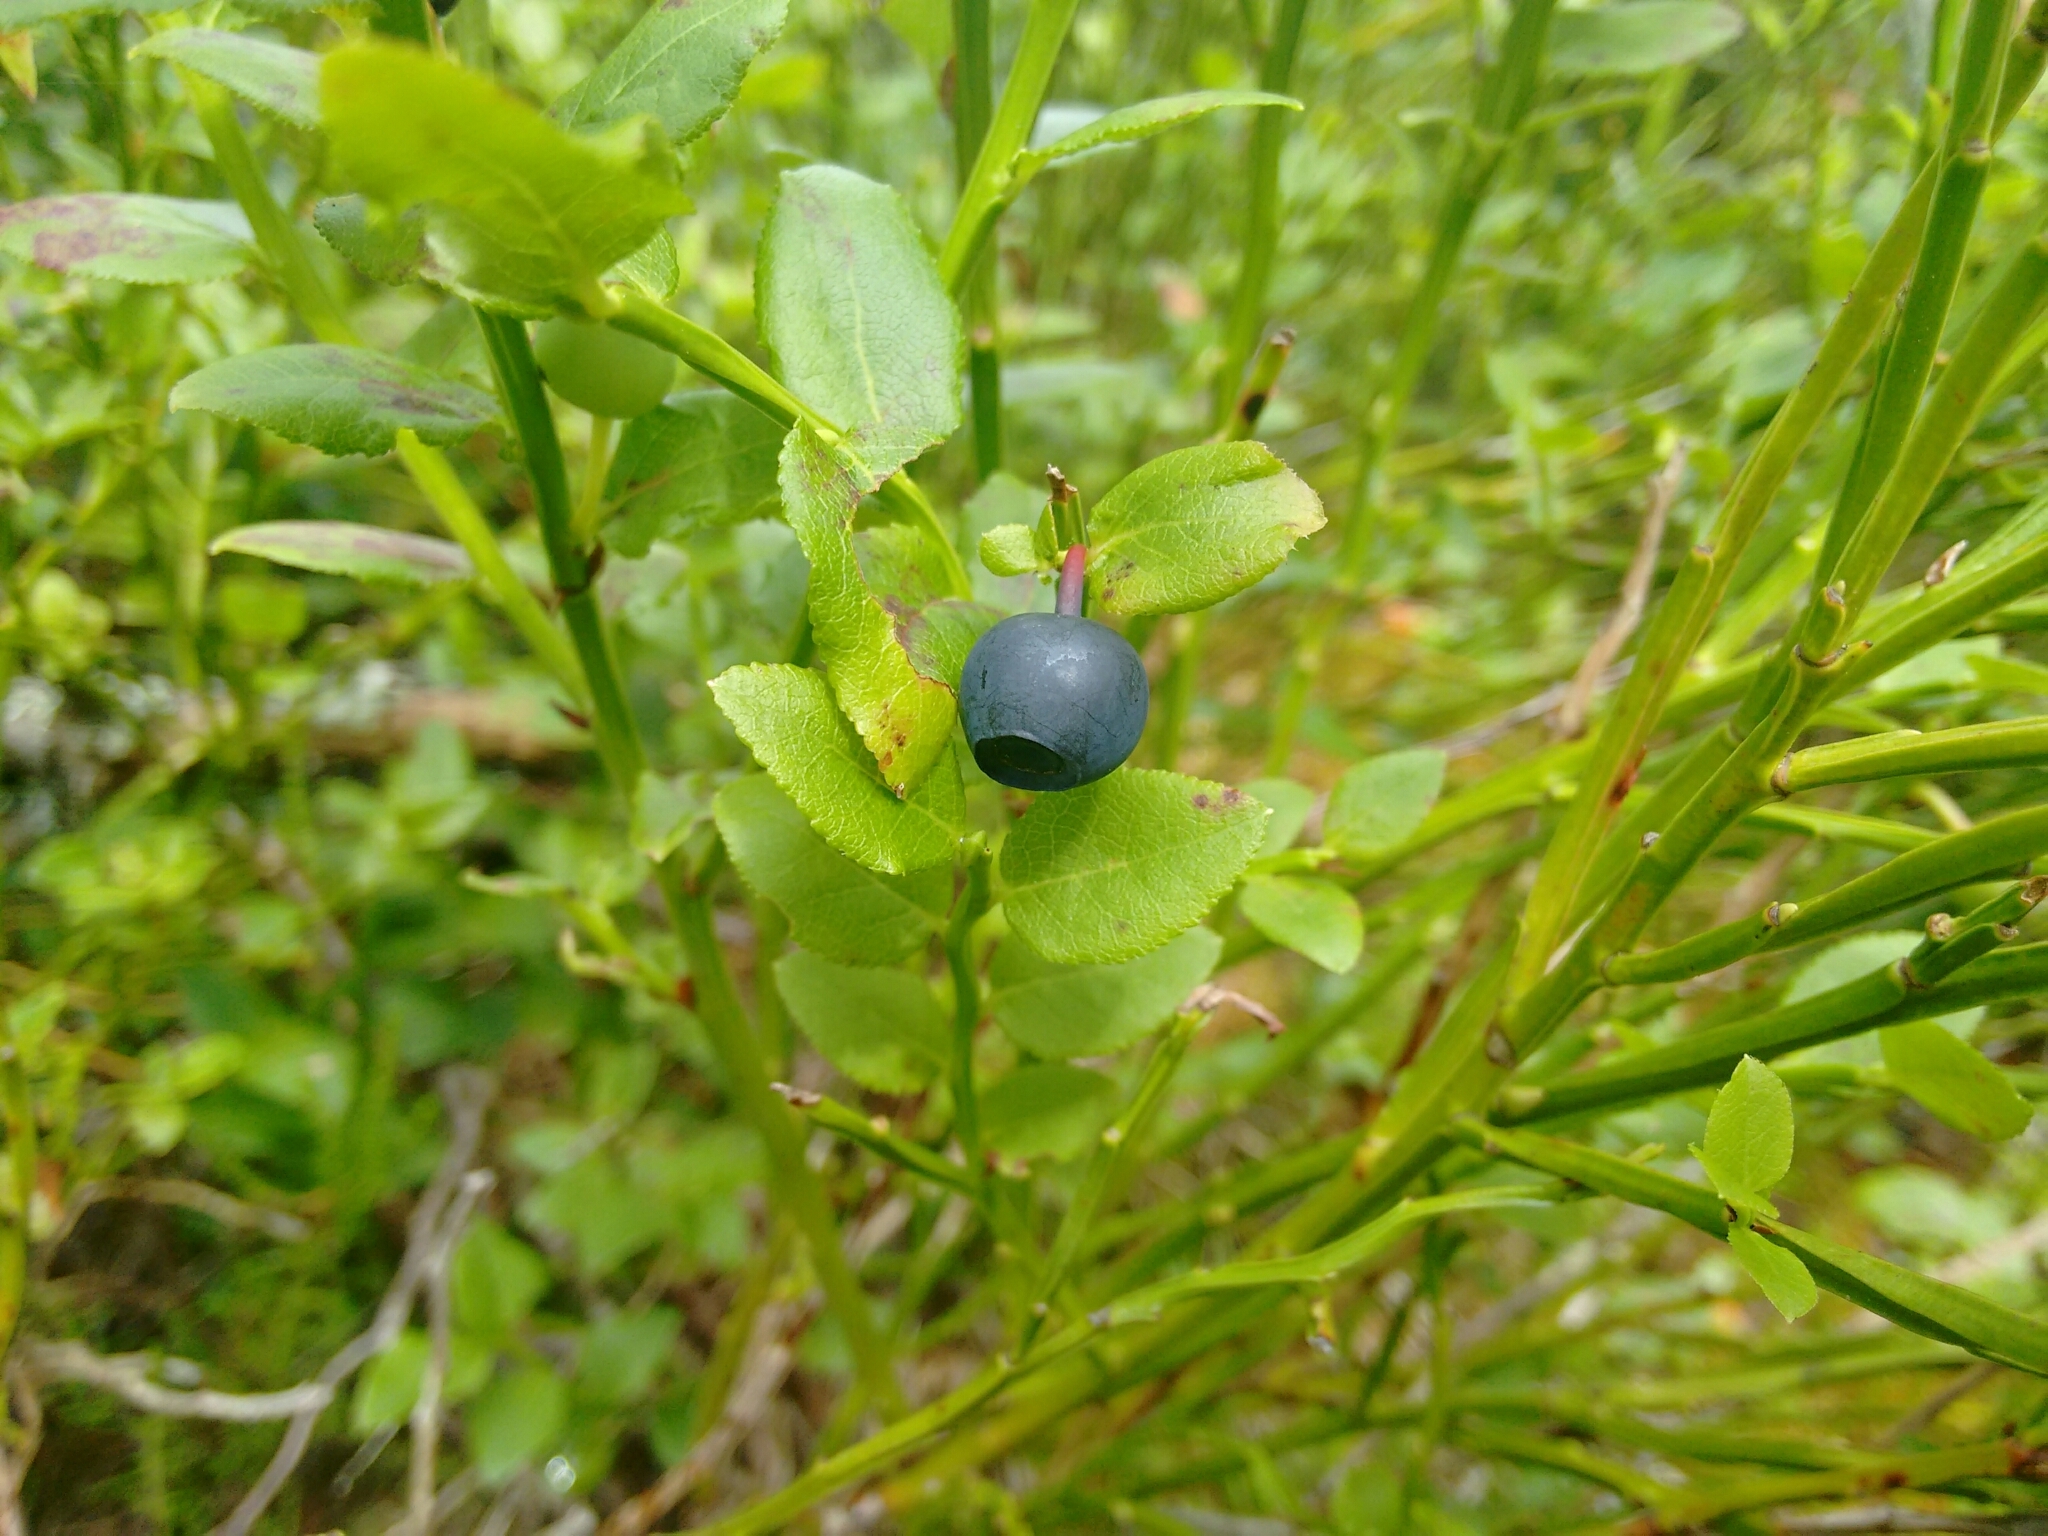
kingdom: Plantae
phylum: Tracheophyta
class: Magnoliopsida
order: Ericales
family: Ericaceae
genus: Vaccinium
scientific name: Vaccinium myrtillus
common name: Bilberry
